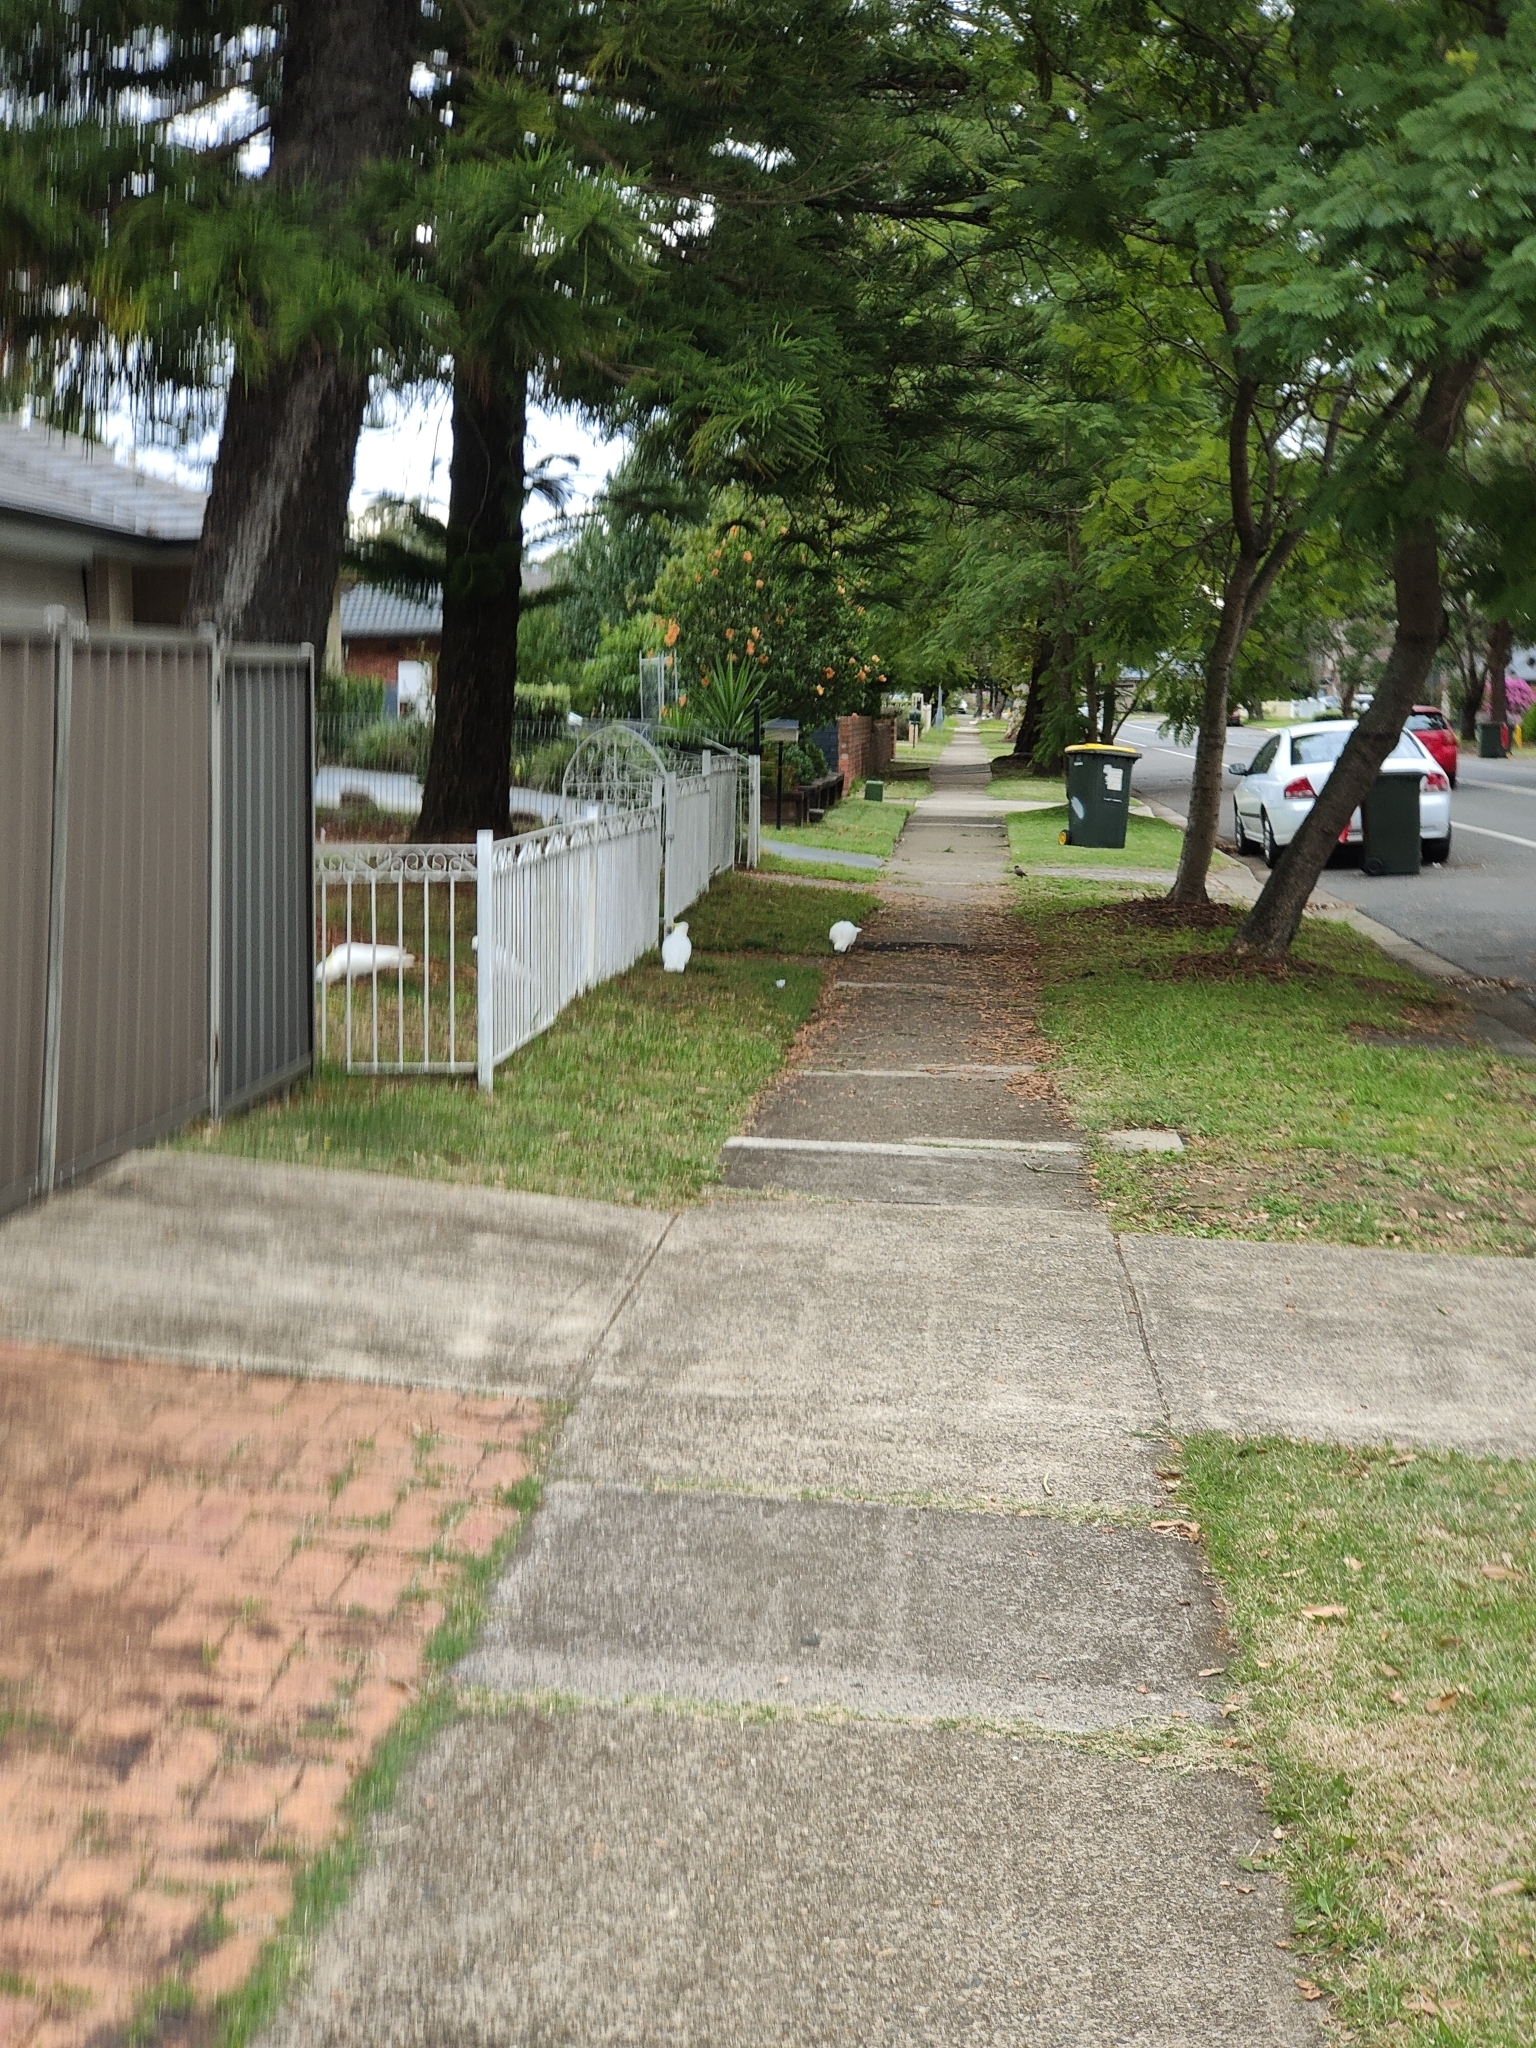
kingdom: Animalia
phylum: Chordata
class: Aves
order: Psittaciformes
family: Psittacidae
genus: Cacatua
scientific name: Cacatua galerita
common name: Sulphur-crested cockatoo
